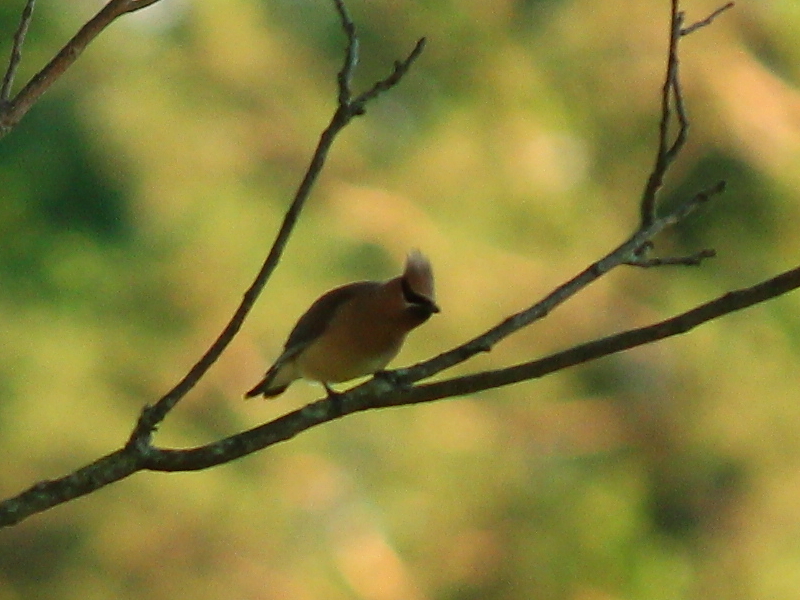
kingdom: Animalia
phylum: Chordata
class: Aves
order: Passeriformes
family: Bombycillidae
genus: Bombycilla
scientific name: Bombycilla cedrorum
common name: Cedar waxwing
